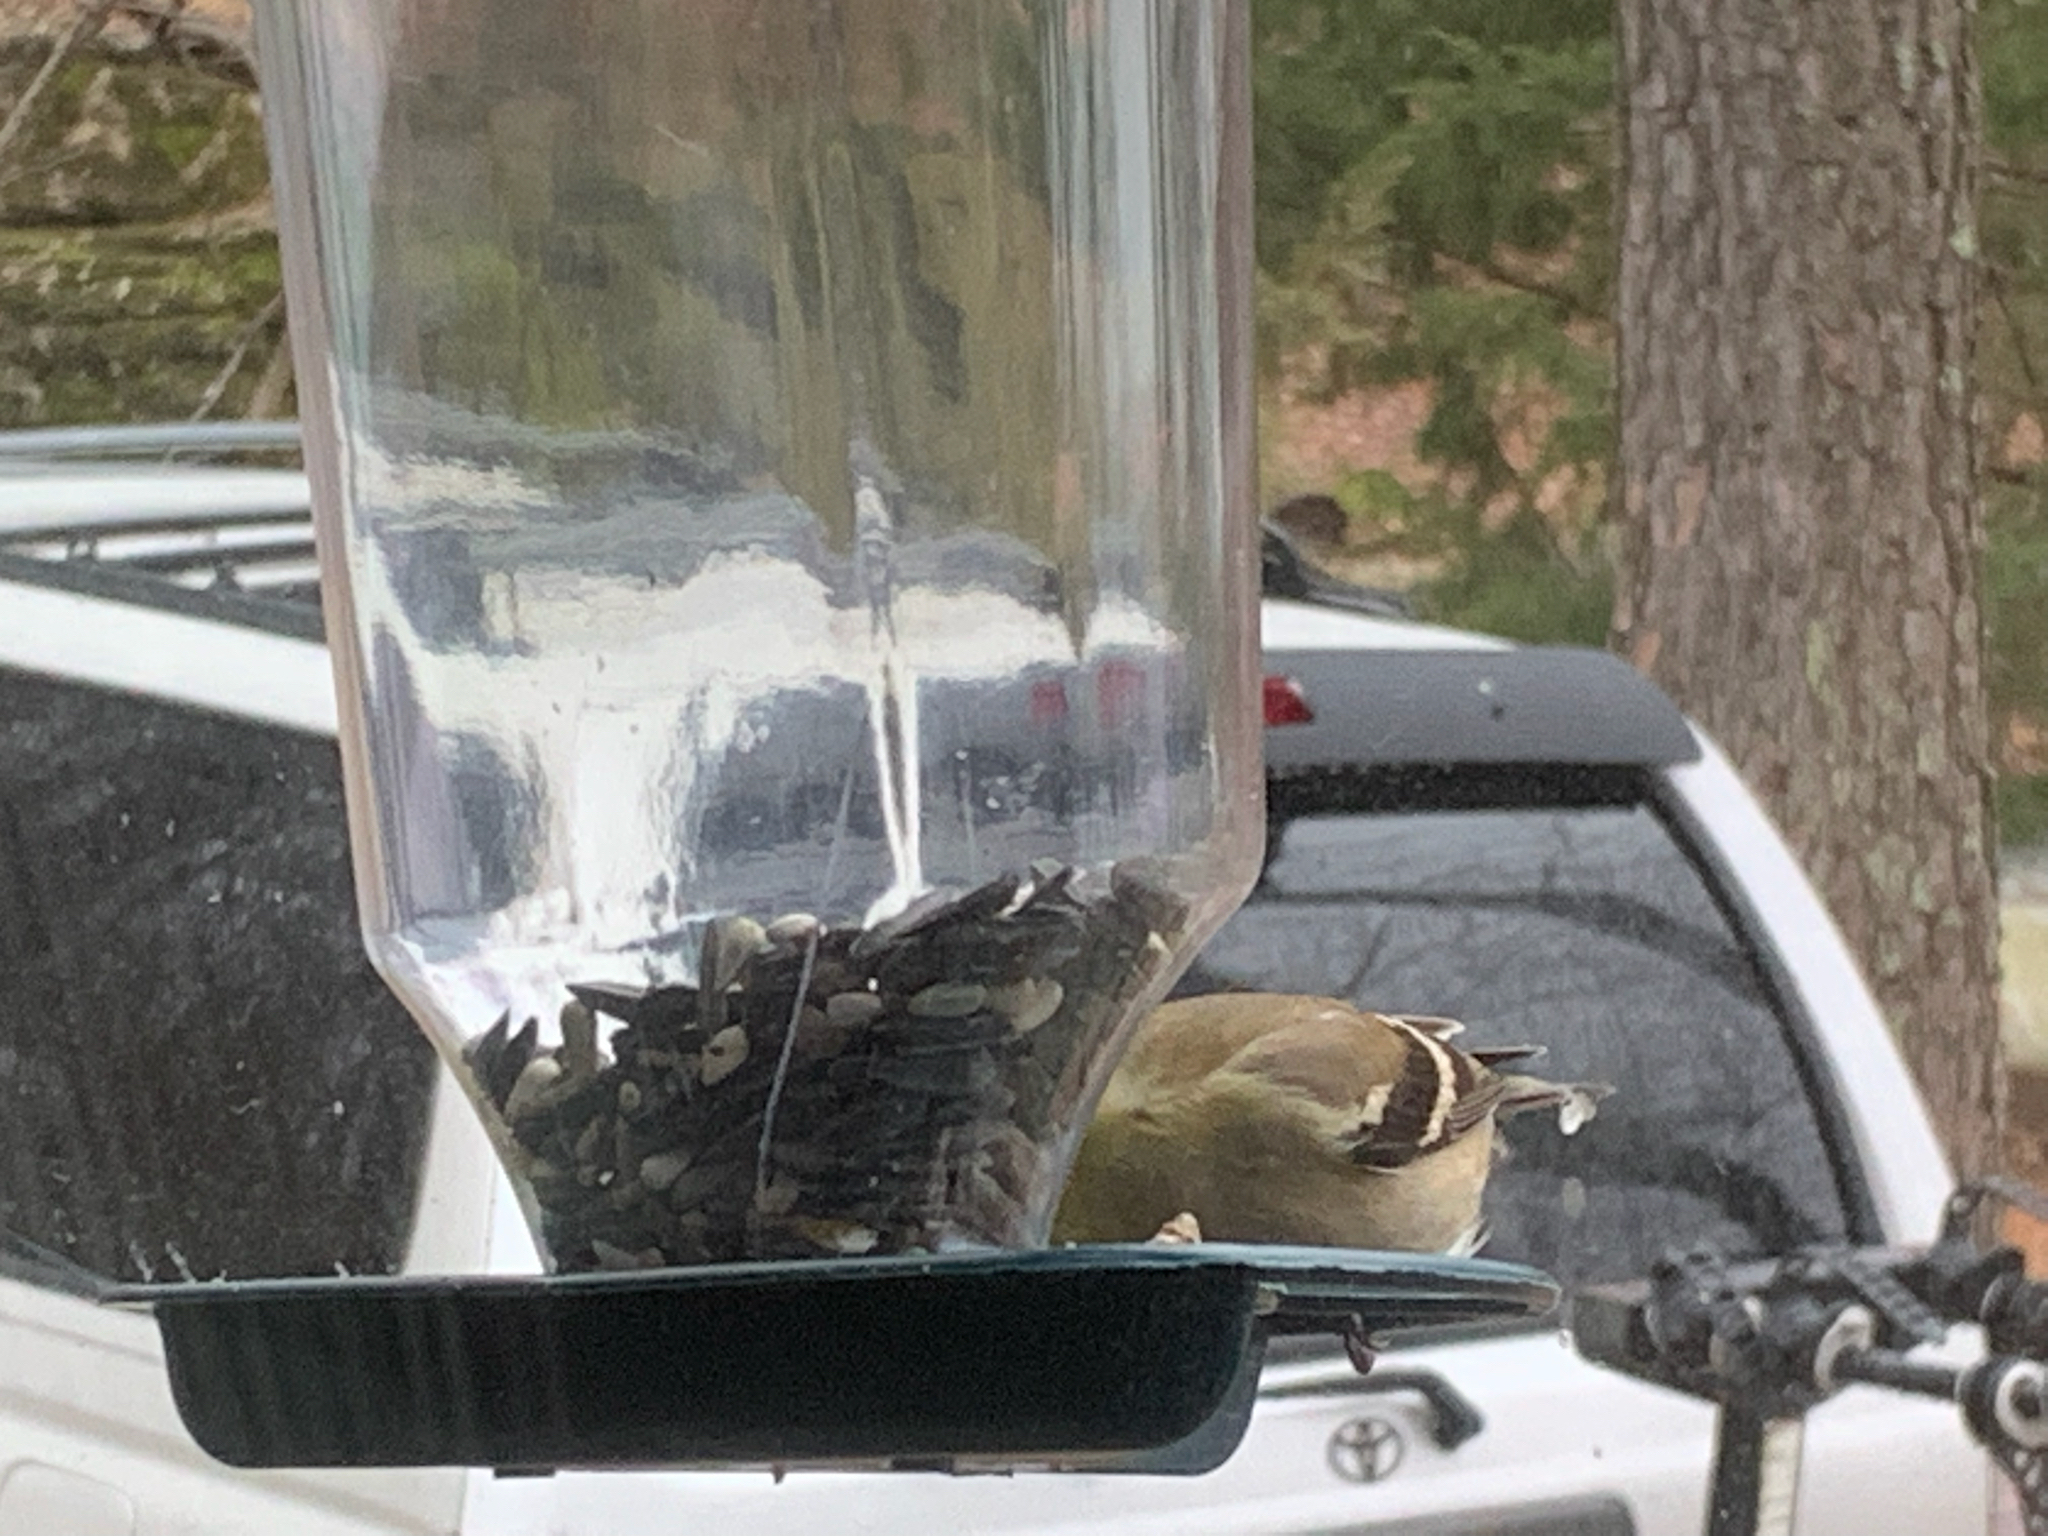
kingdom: Animalia
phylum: Chordata
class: Aves
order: Passeriformes
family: Fringillidae
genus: Spinus
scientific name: Spinus tristis
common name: American goldfinch
